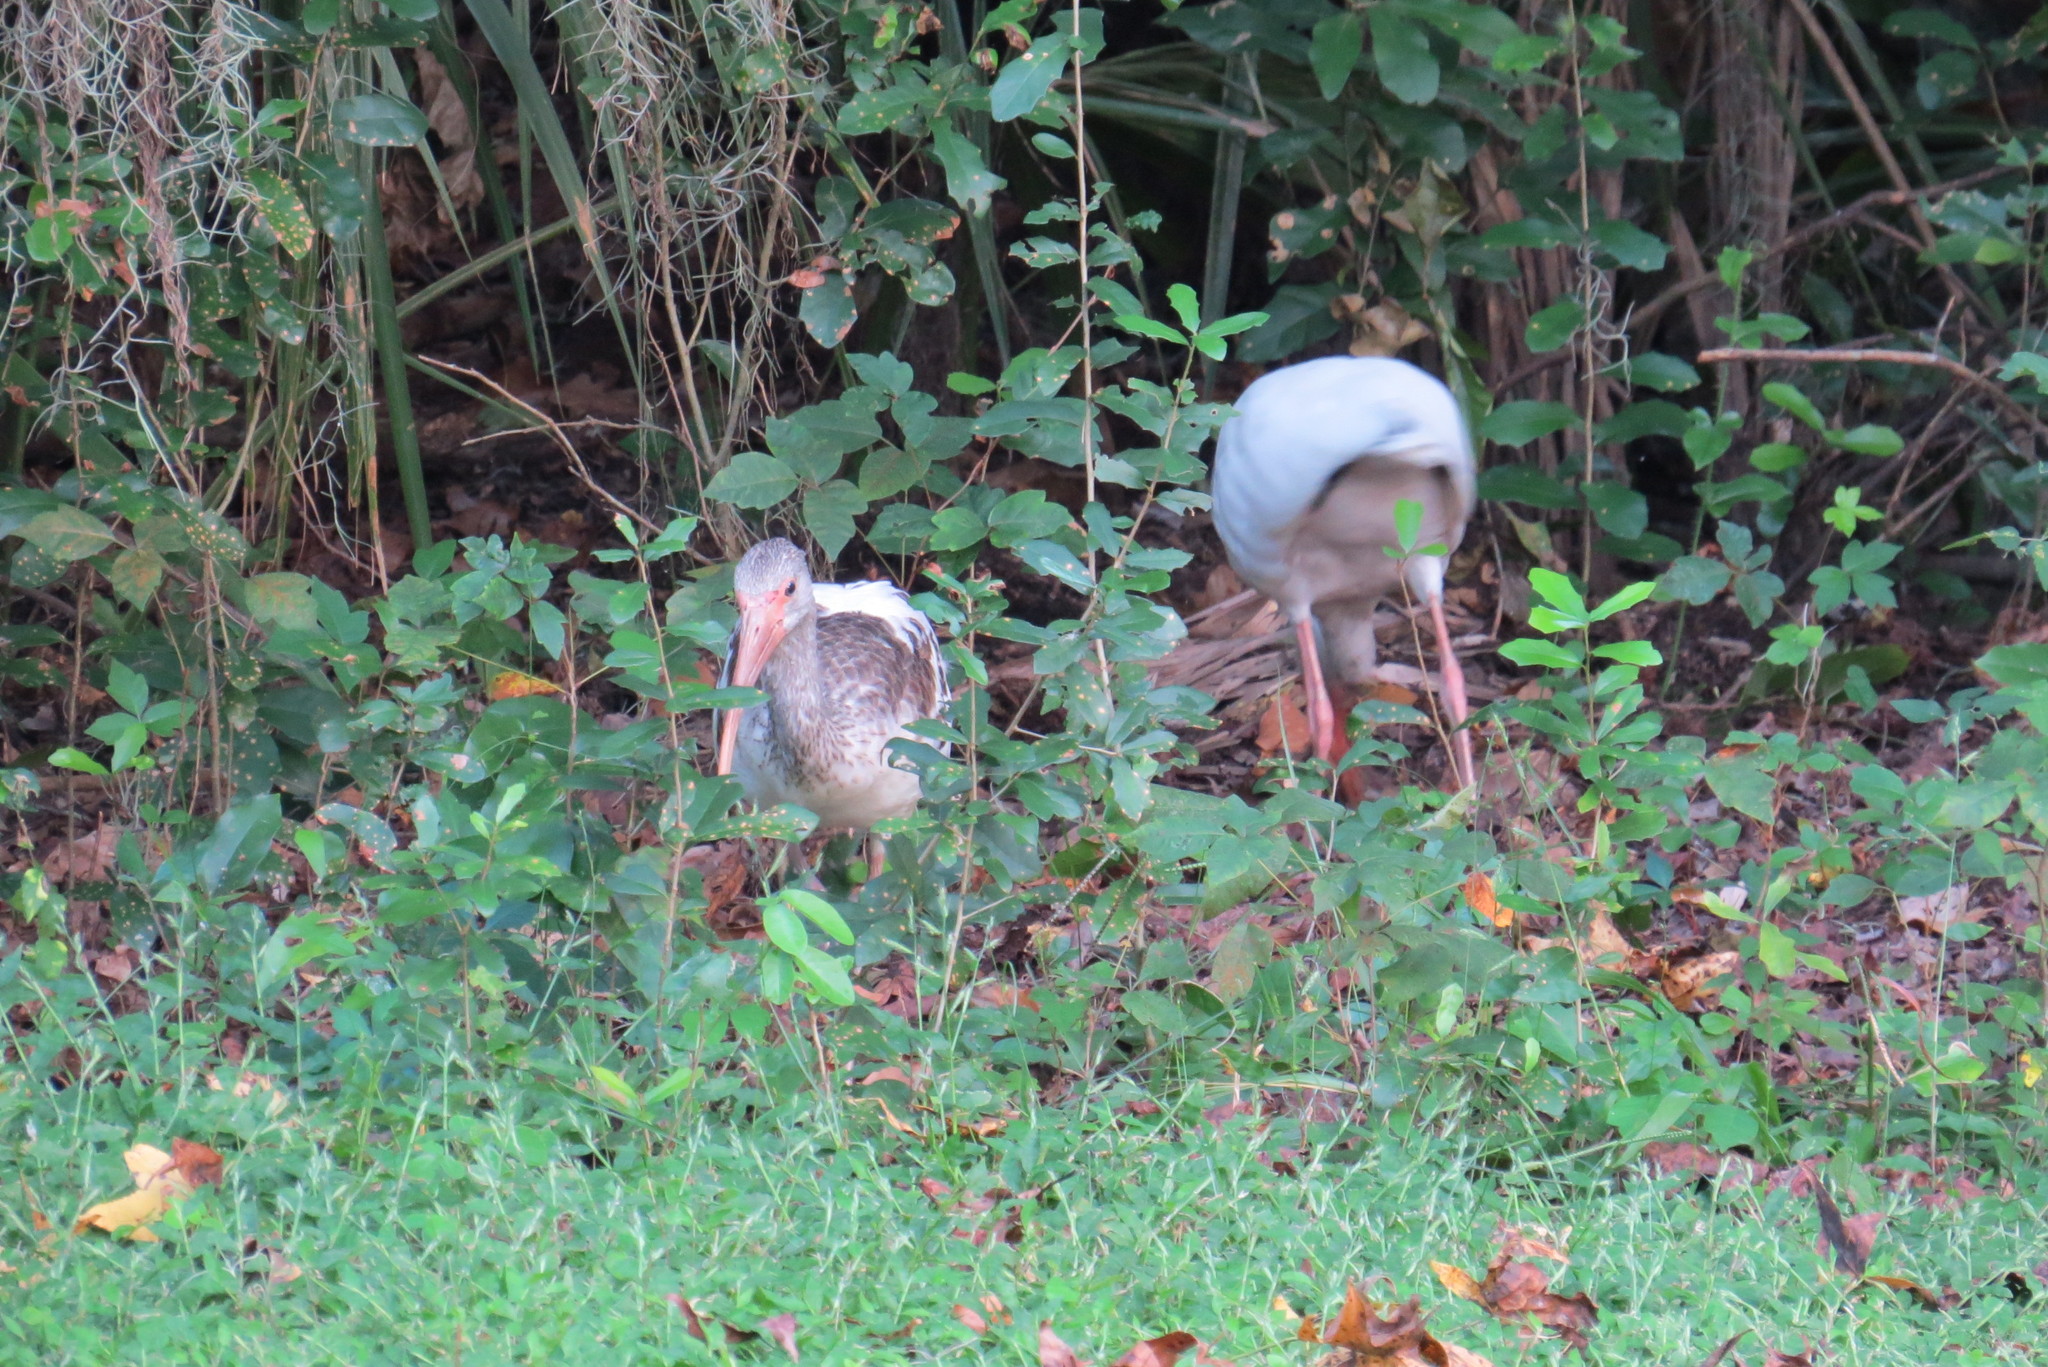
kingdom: Animalia
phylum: Chordata
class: Aves
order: Pelecaniformes
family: Threskiornithidae
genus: Eudocimus
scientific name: Eudocimus albus
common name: White ibis
